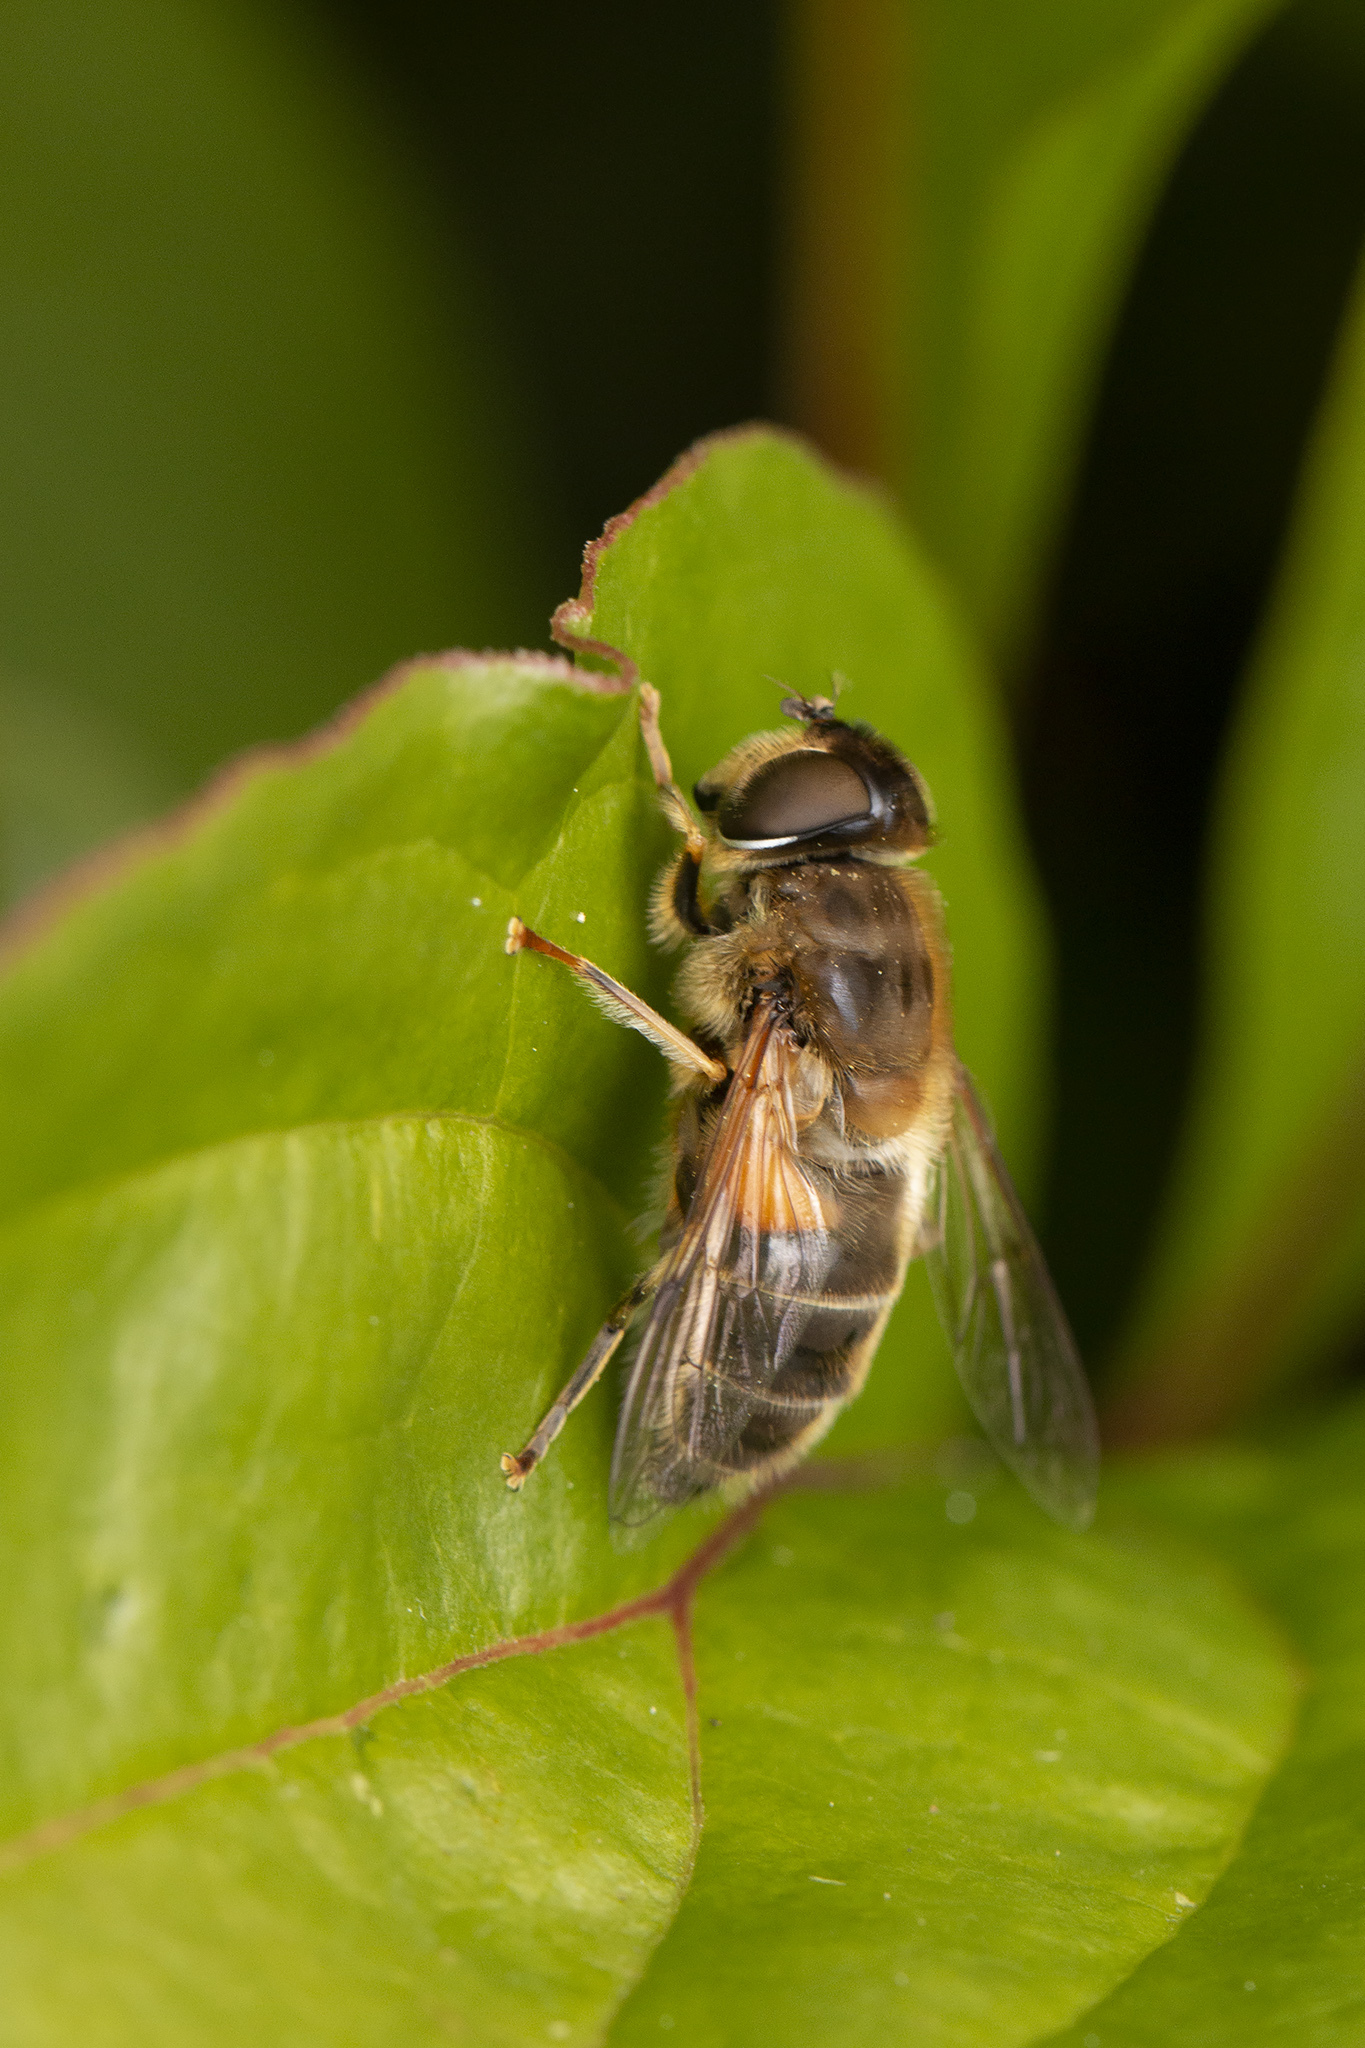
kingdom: Animalia
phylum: Arthropoda
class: Insecta
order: Diptera
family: Syrphidae
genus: Eristalis
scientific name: Eristalis pertinax
